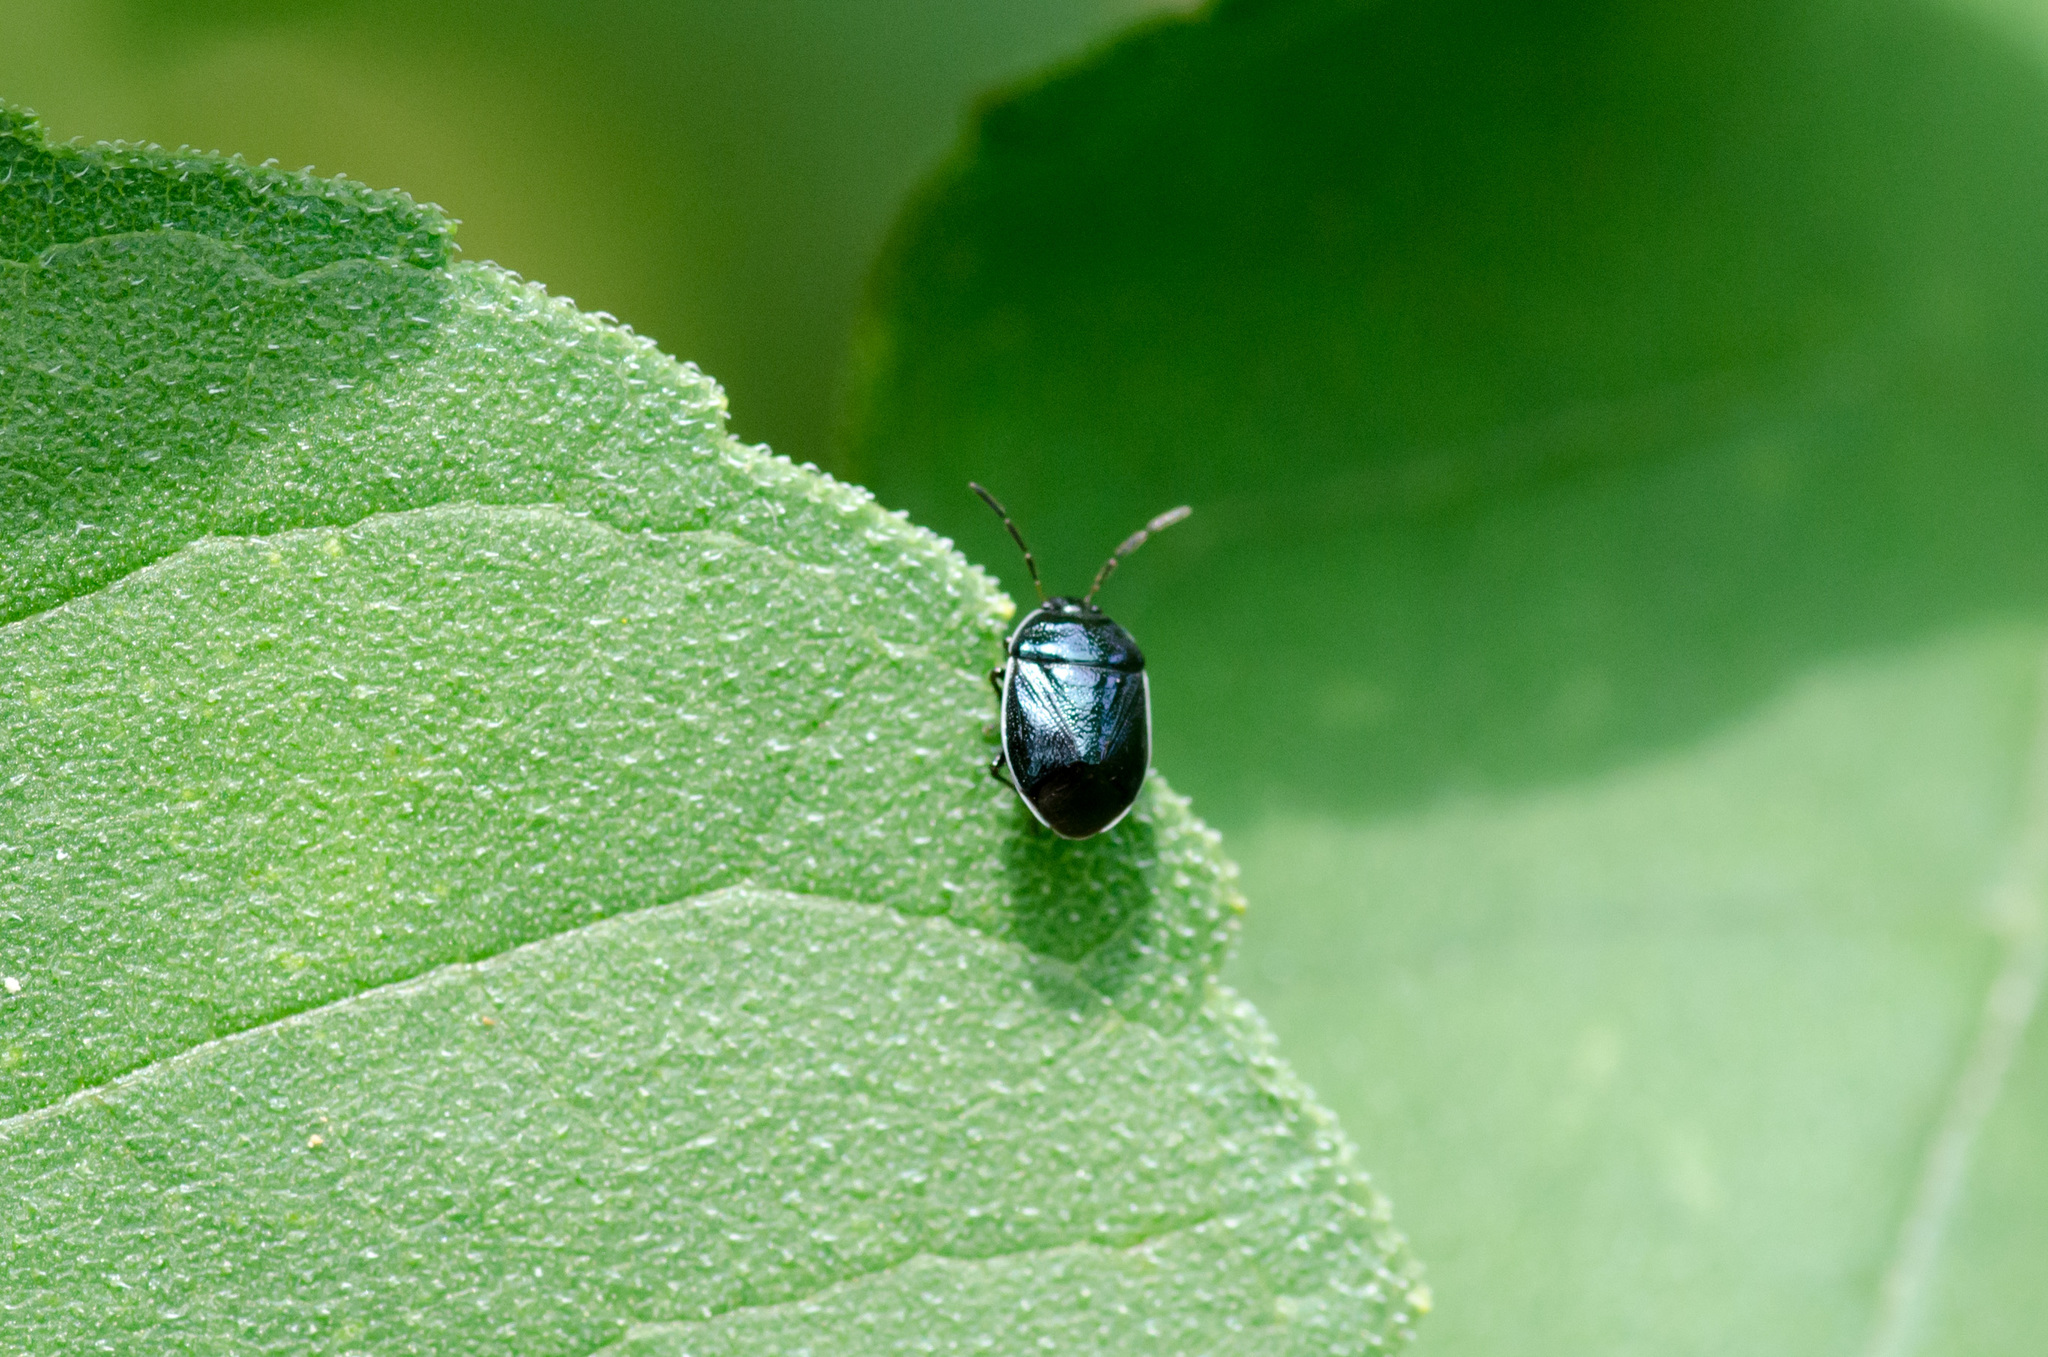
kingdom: Animalia
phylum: Arthropoda
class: Insecta
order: Hemiptera
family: Cydnidae
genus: Sehirus
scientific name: Sehirus cinctus
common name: White-margined burrower bug
